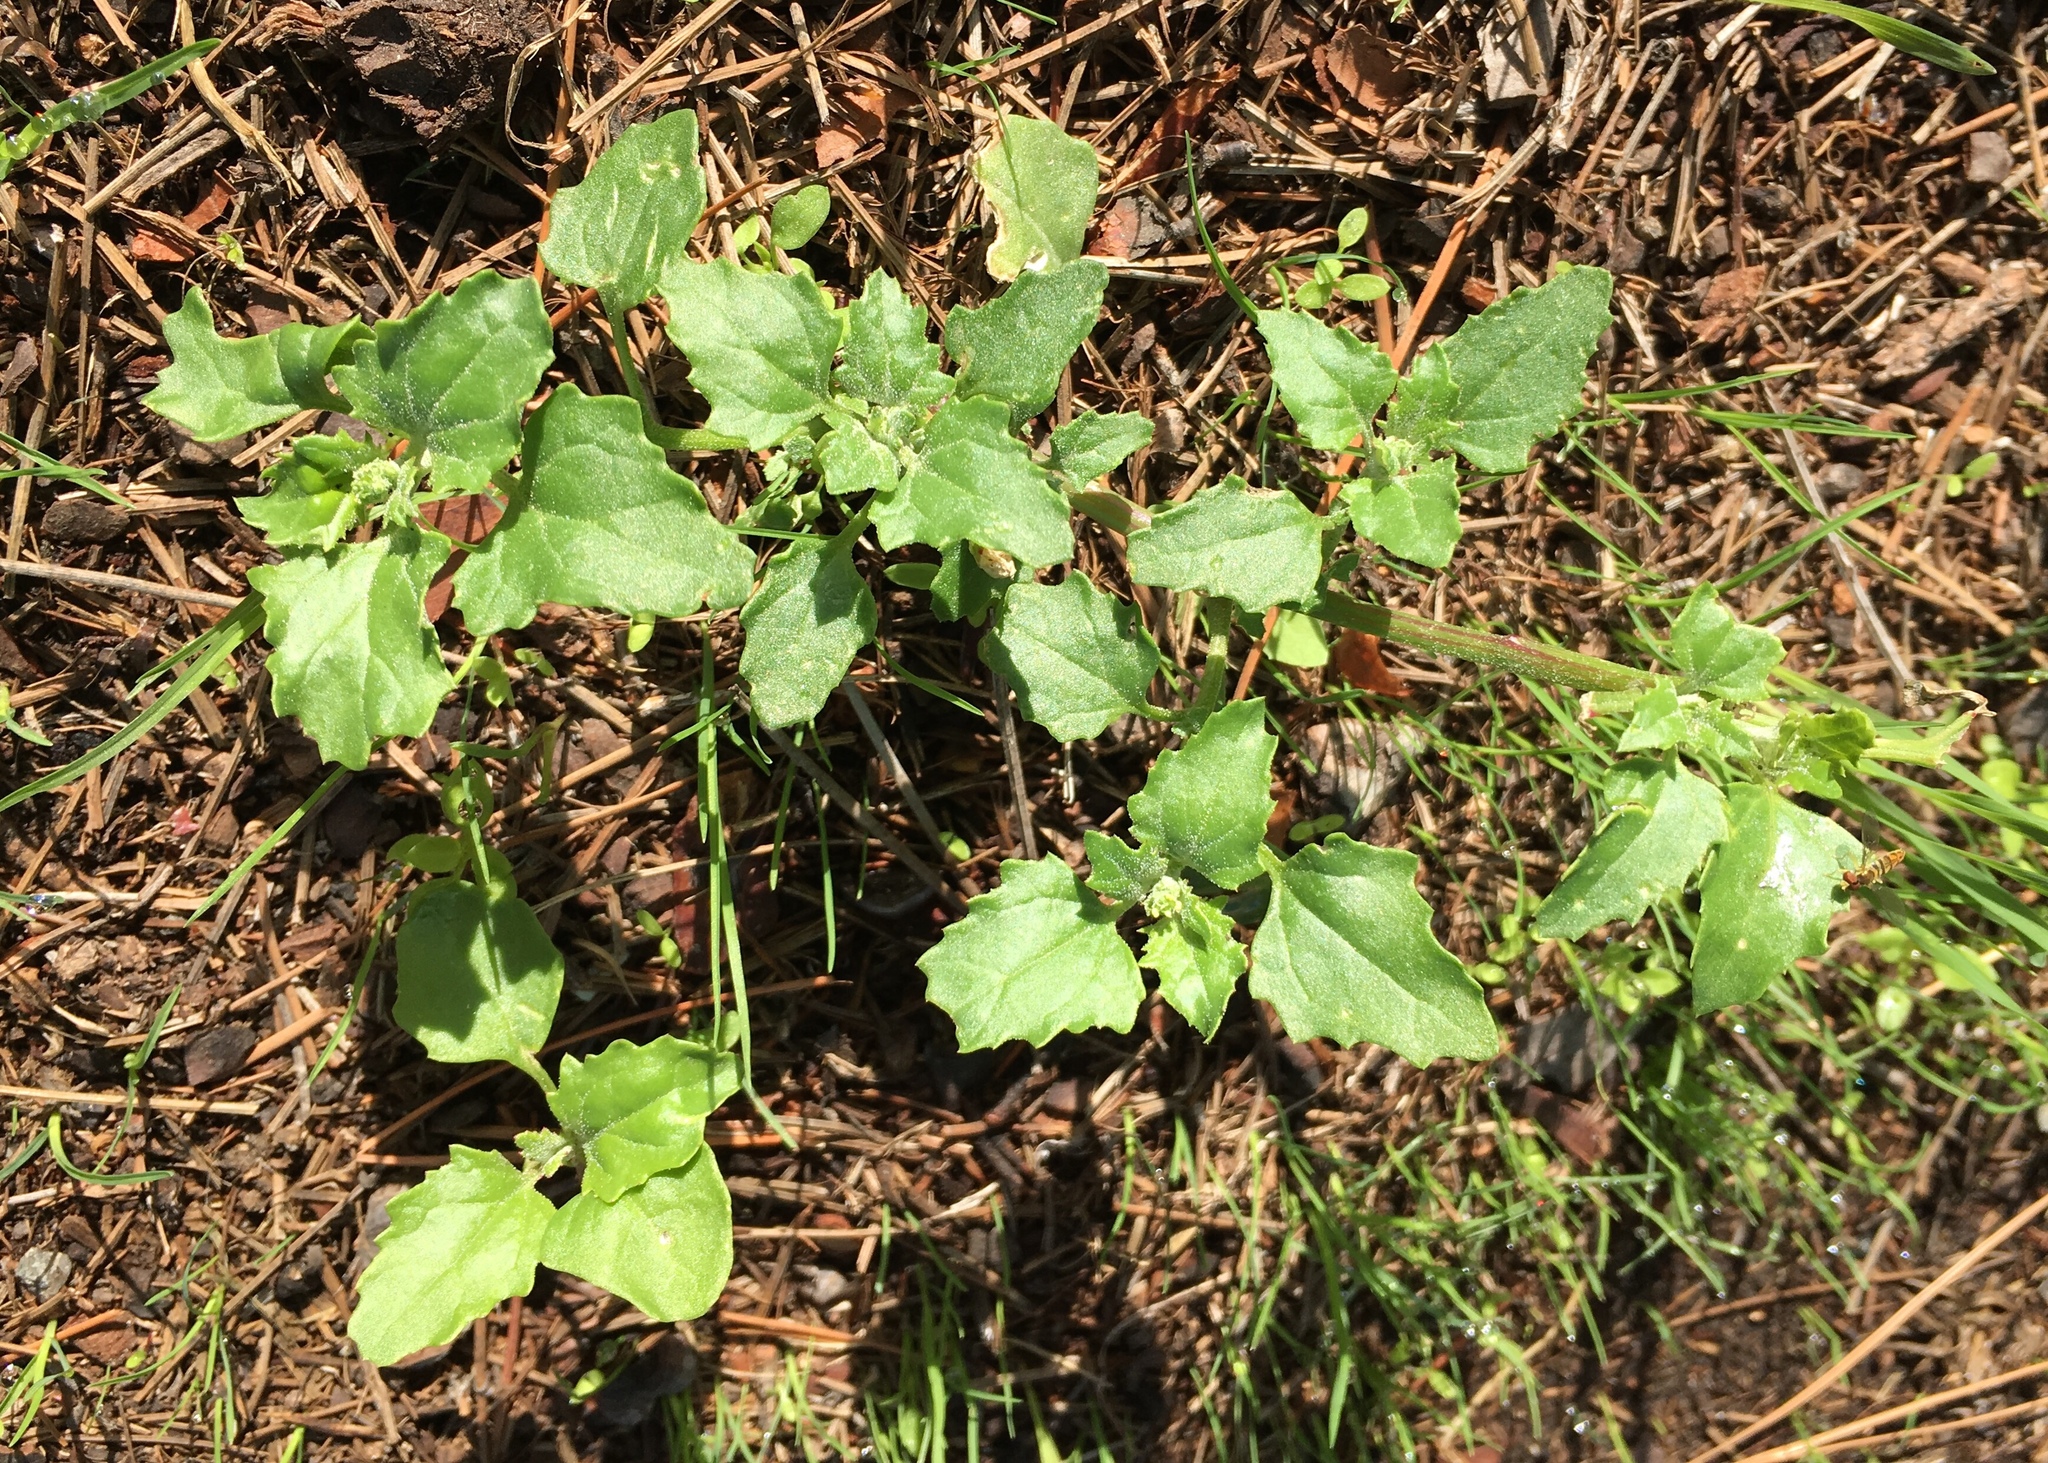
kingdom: Plantae
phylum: Tracheophyta
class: Magnoliopsida
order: Caryophyllales
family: Amaranthaceae
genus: Chenopodiastrum
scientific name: Chenopodiastrum murale
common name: Sowbane
